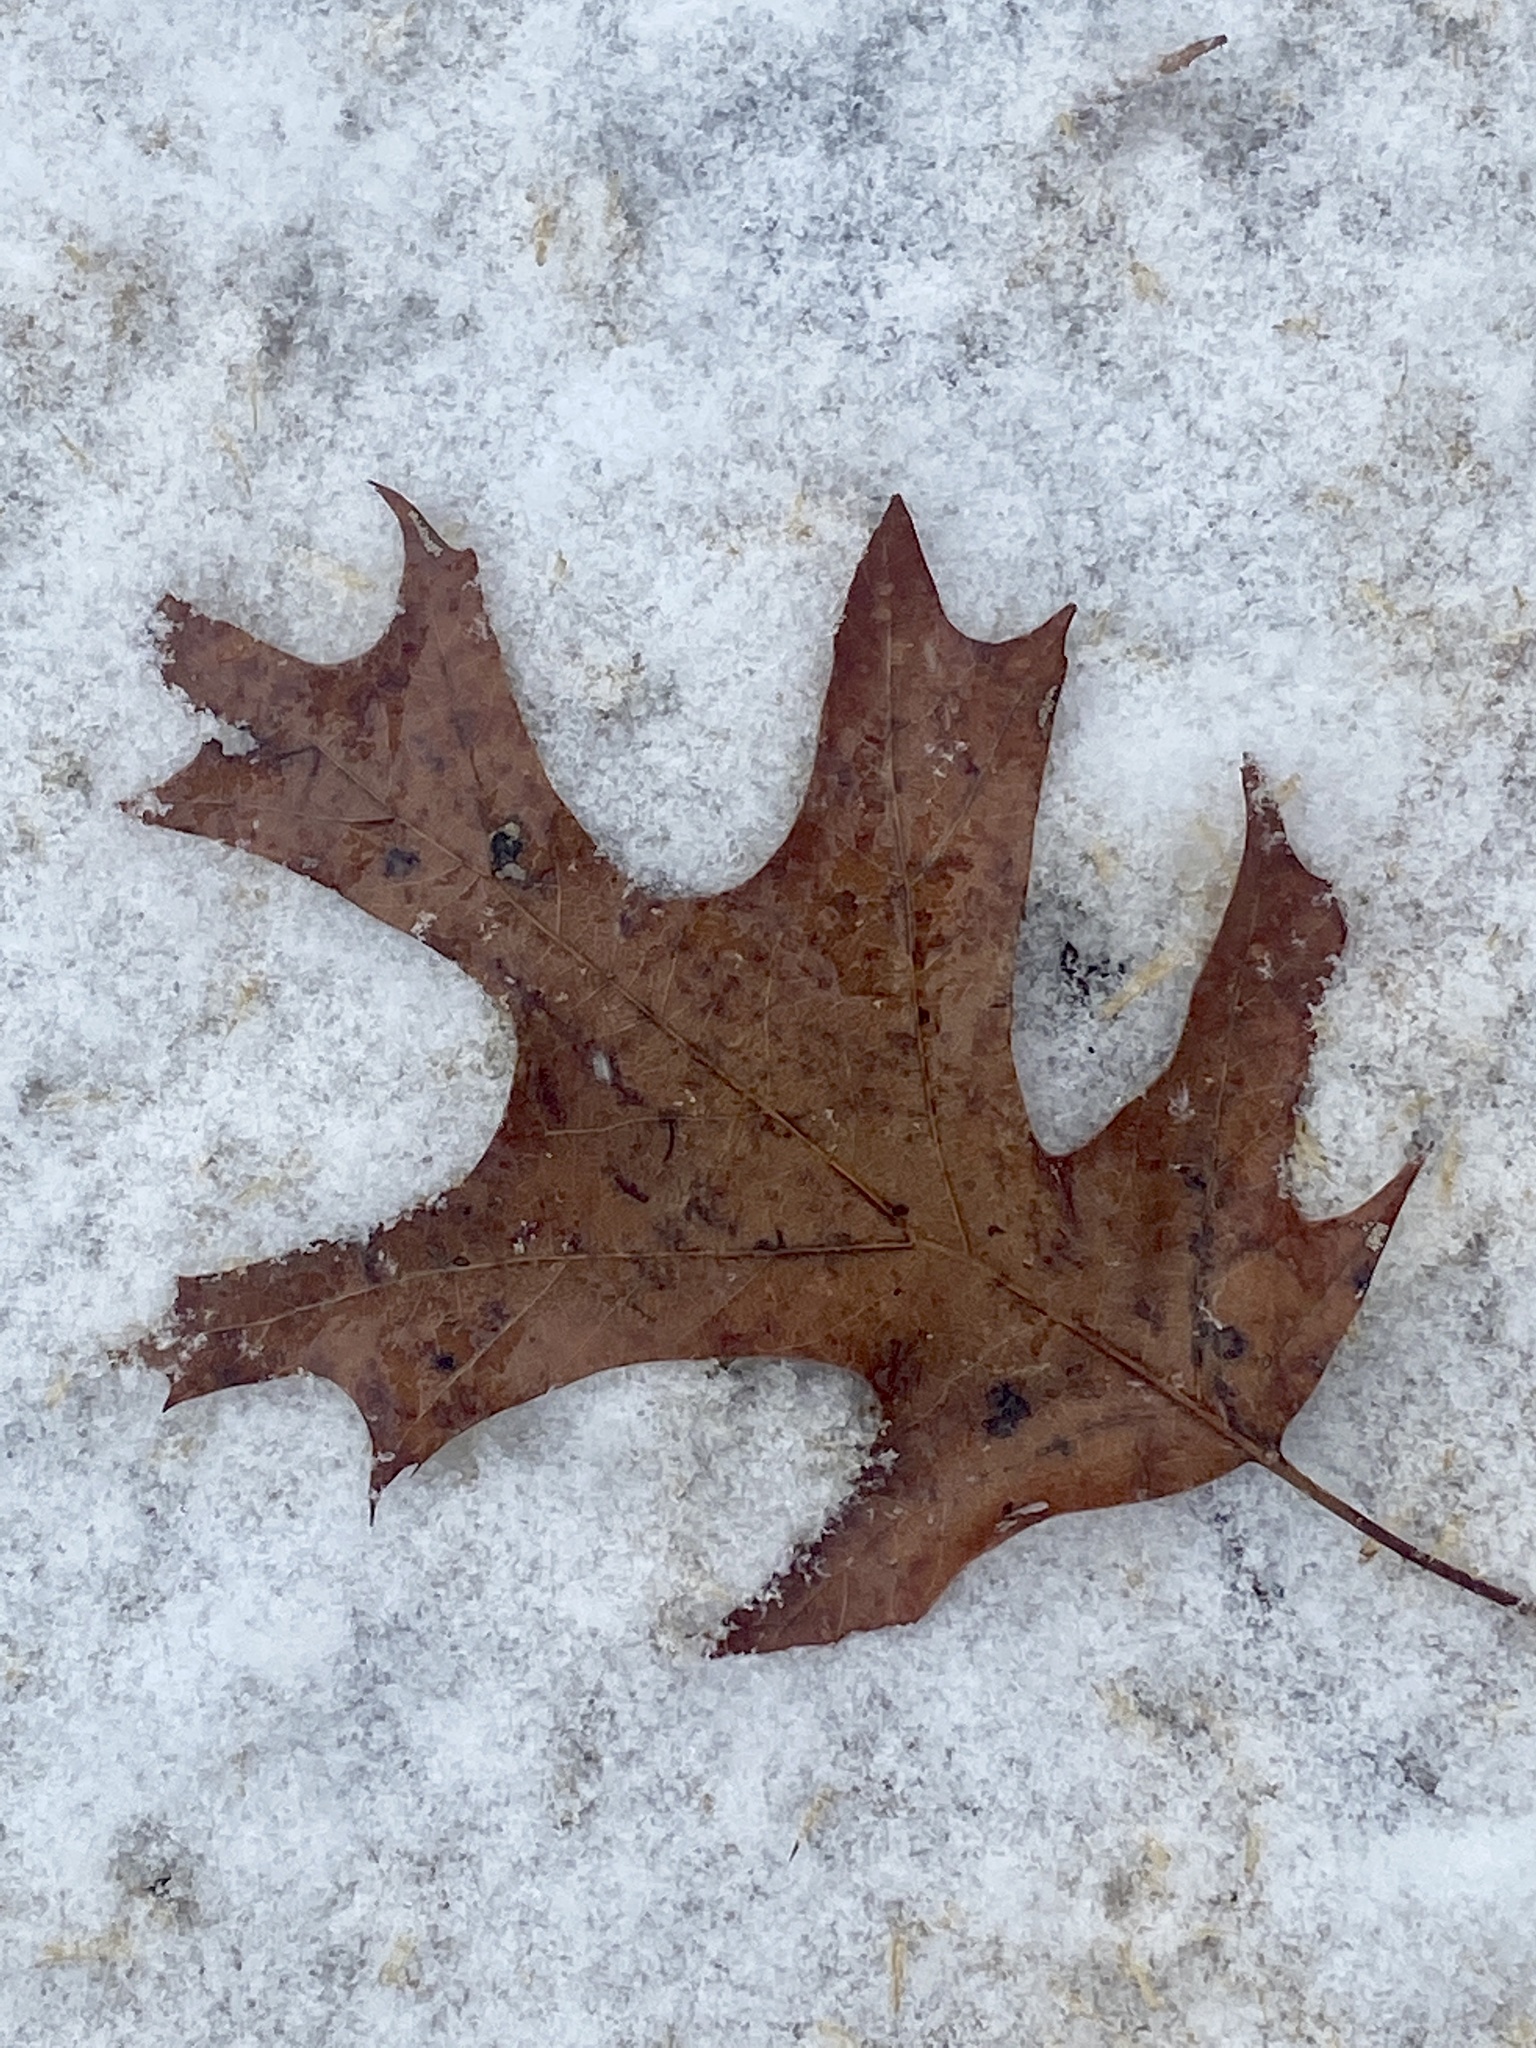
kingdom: Plantae
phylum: Tracheophyta
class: Magnoliopsida
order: Fagales
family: Fagaceae
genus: Quercus
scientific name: Quercus velutina
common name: Black oak
